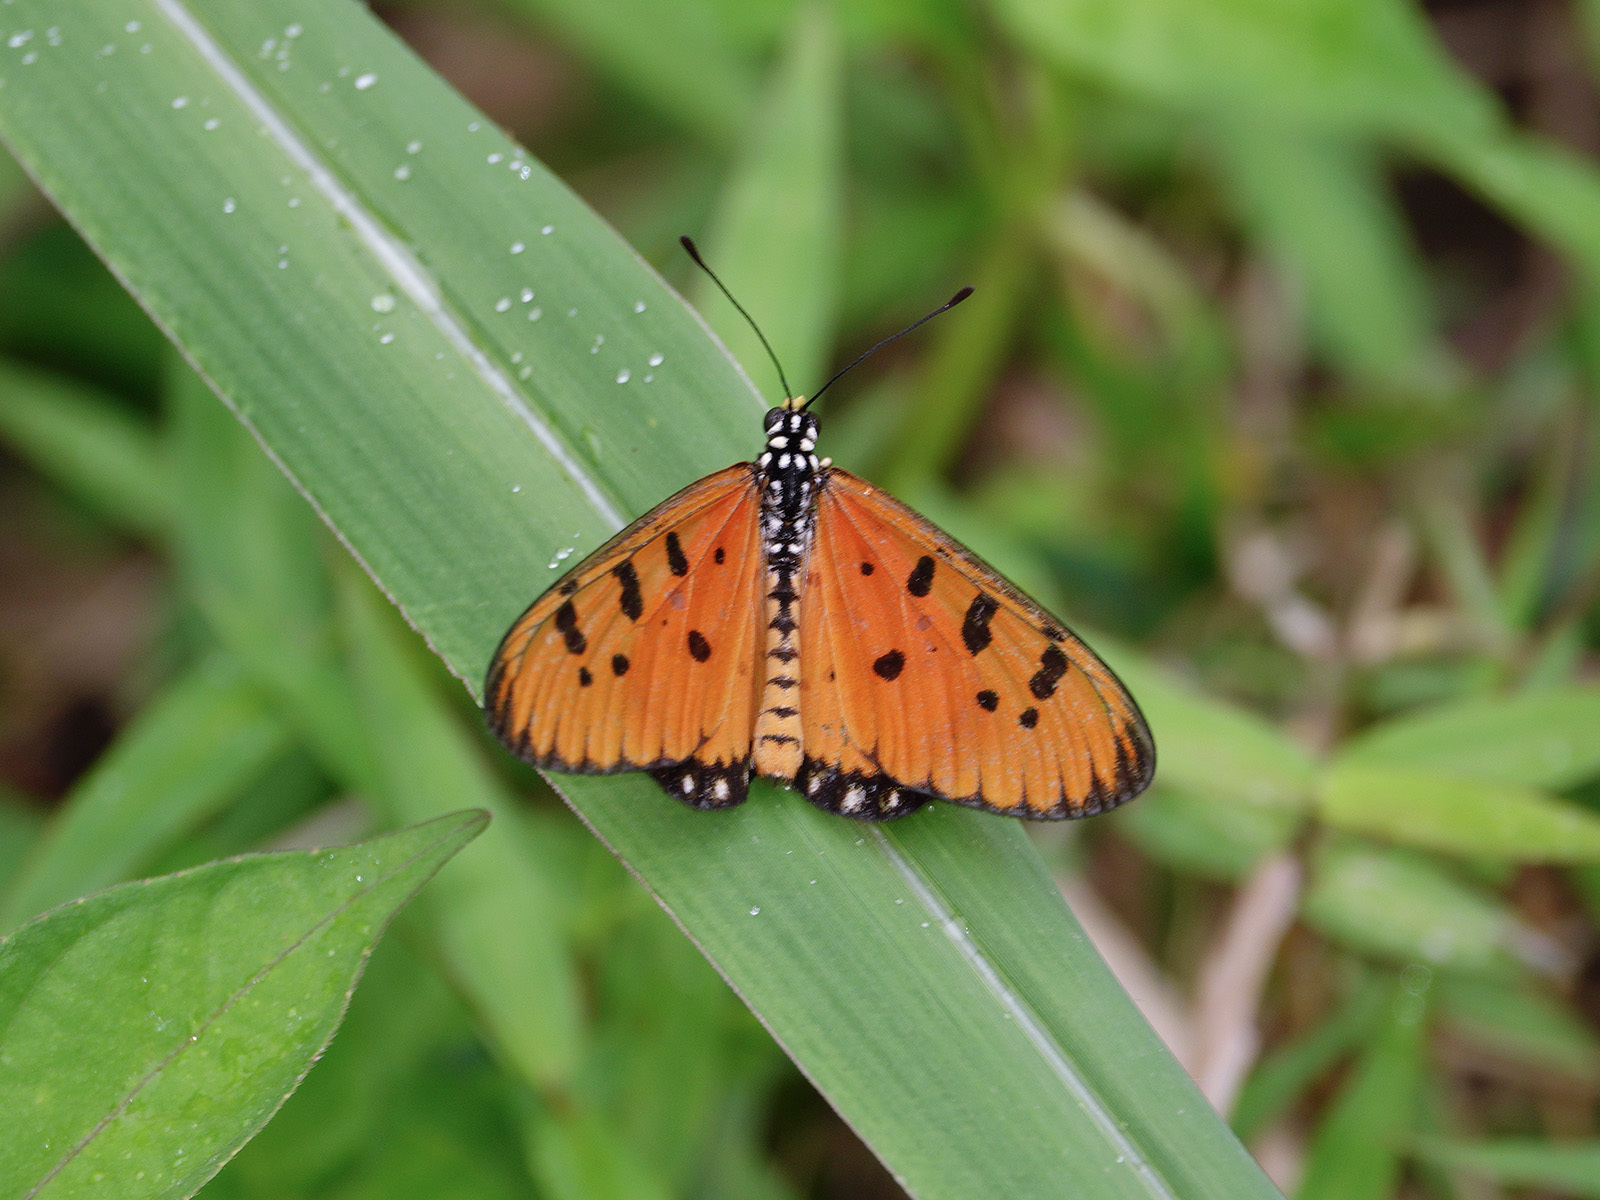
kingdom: Animalia
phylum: Arthropoda
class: Insecta
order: Lepidoptera
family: Nymphalidae
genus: Acraea
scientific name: Acraea terpsicore
